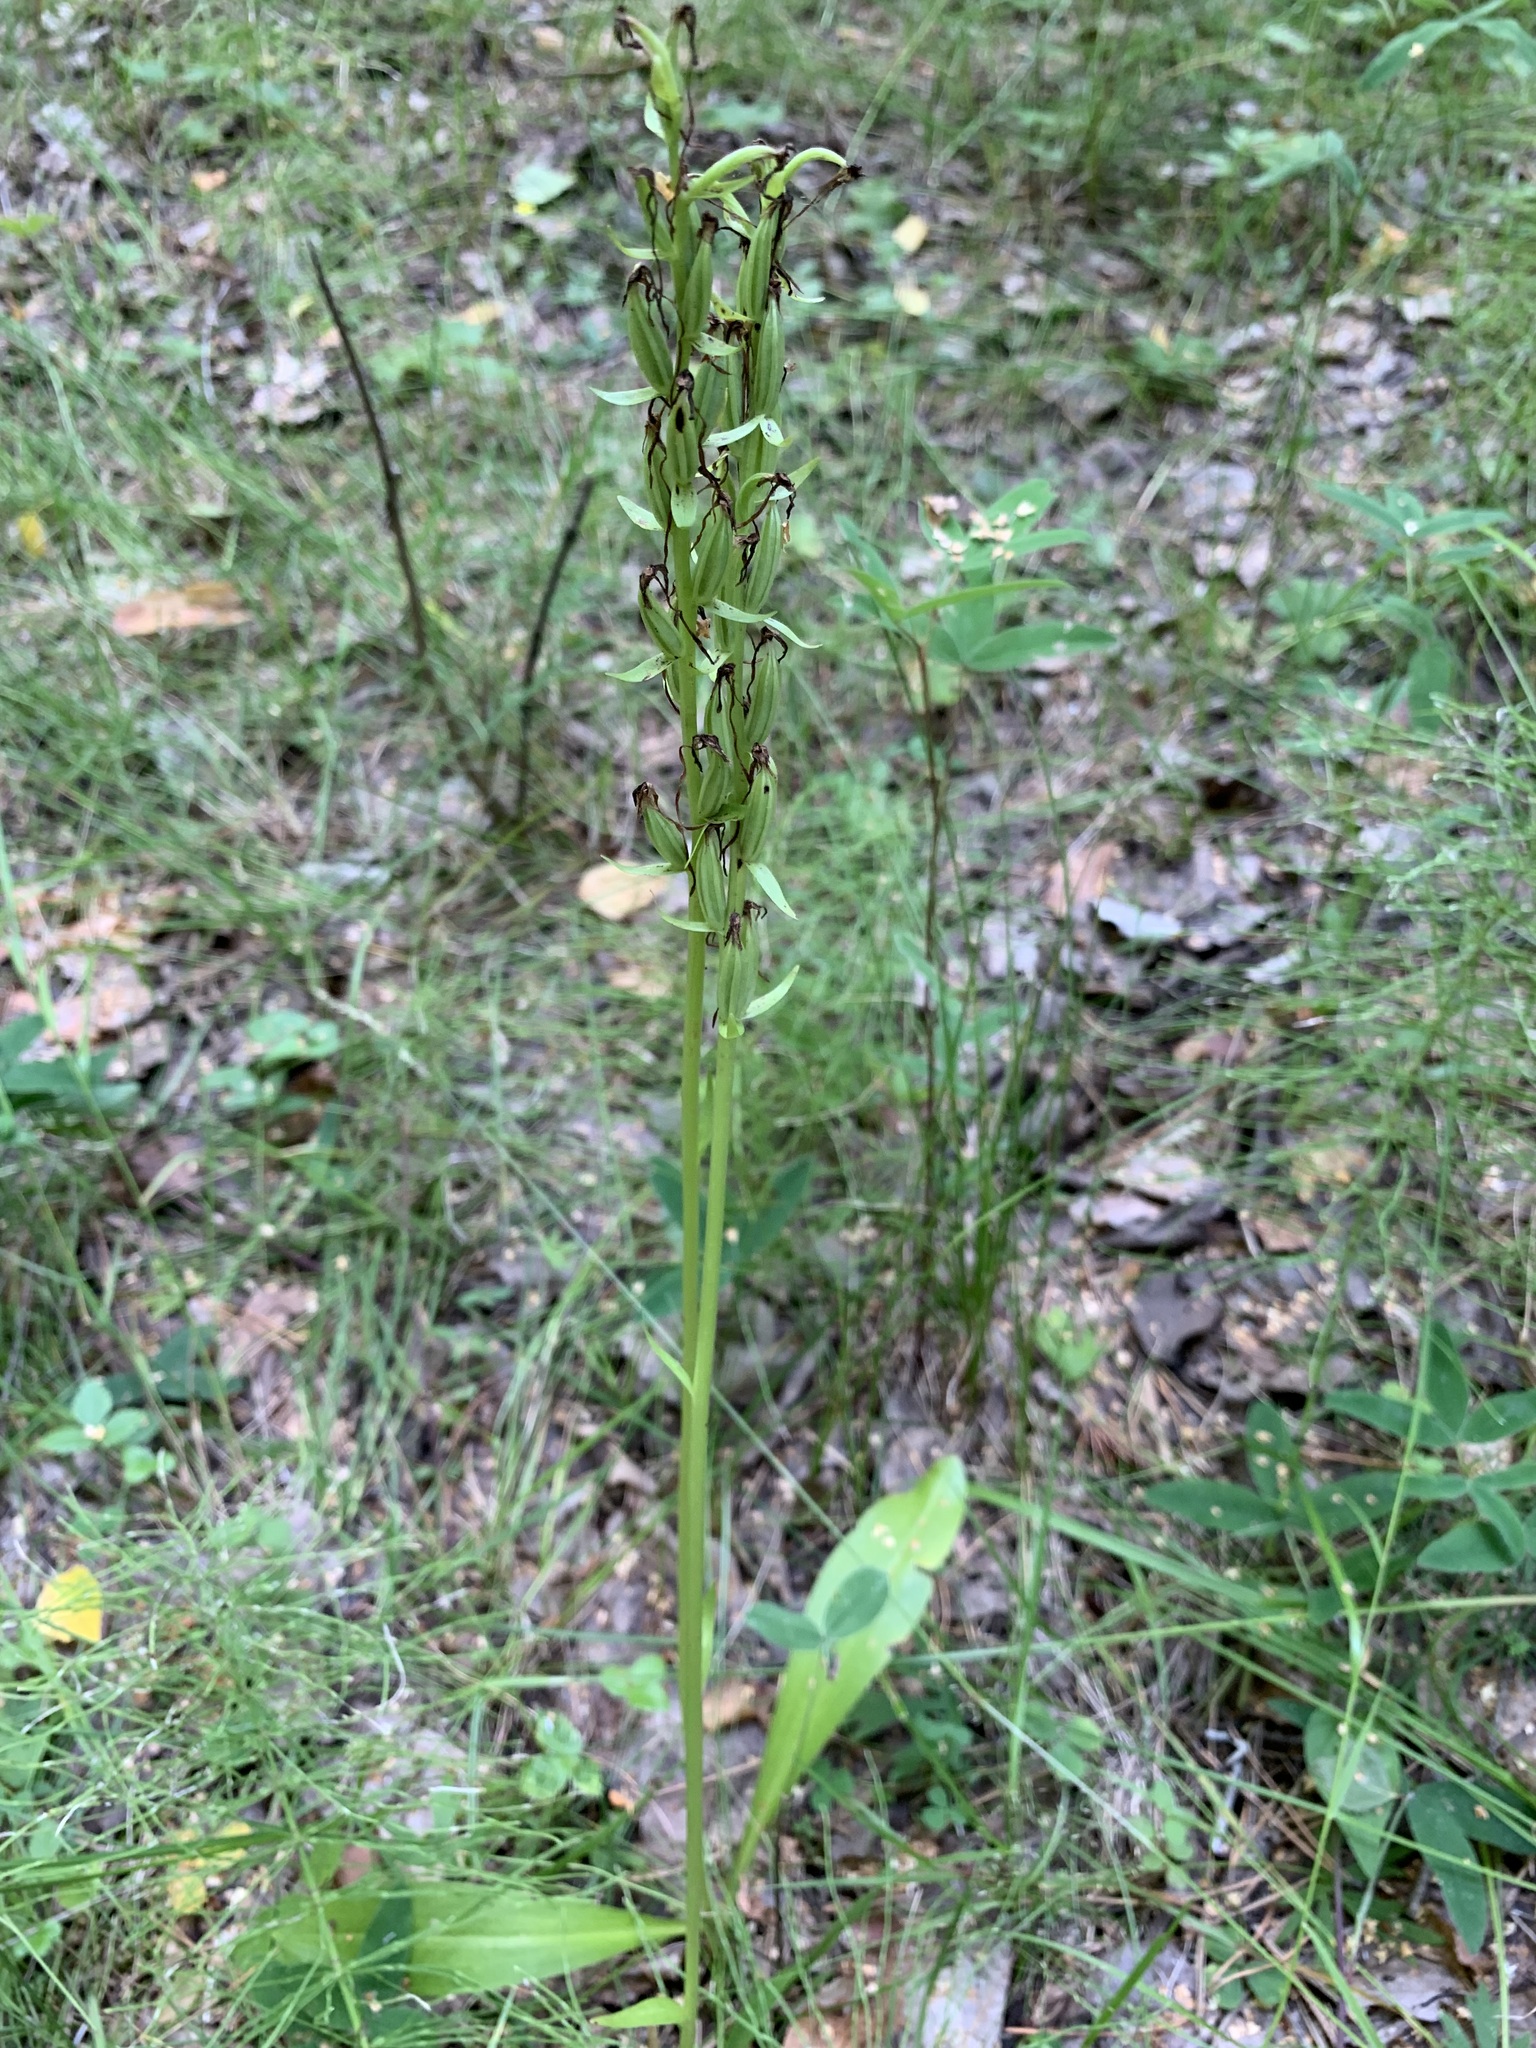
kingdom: Plantae
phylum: Tracheophyta
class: Liliopsida
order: Asparagales
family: Orchidaceae
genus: Platanthera
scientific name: Platanthera bifolia
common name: Lesser butterfly-orchid
